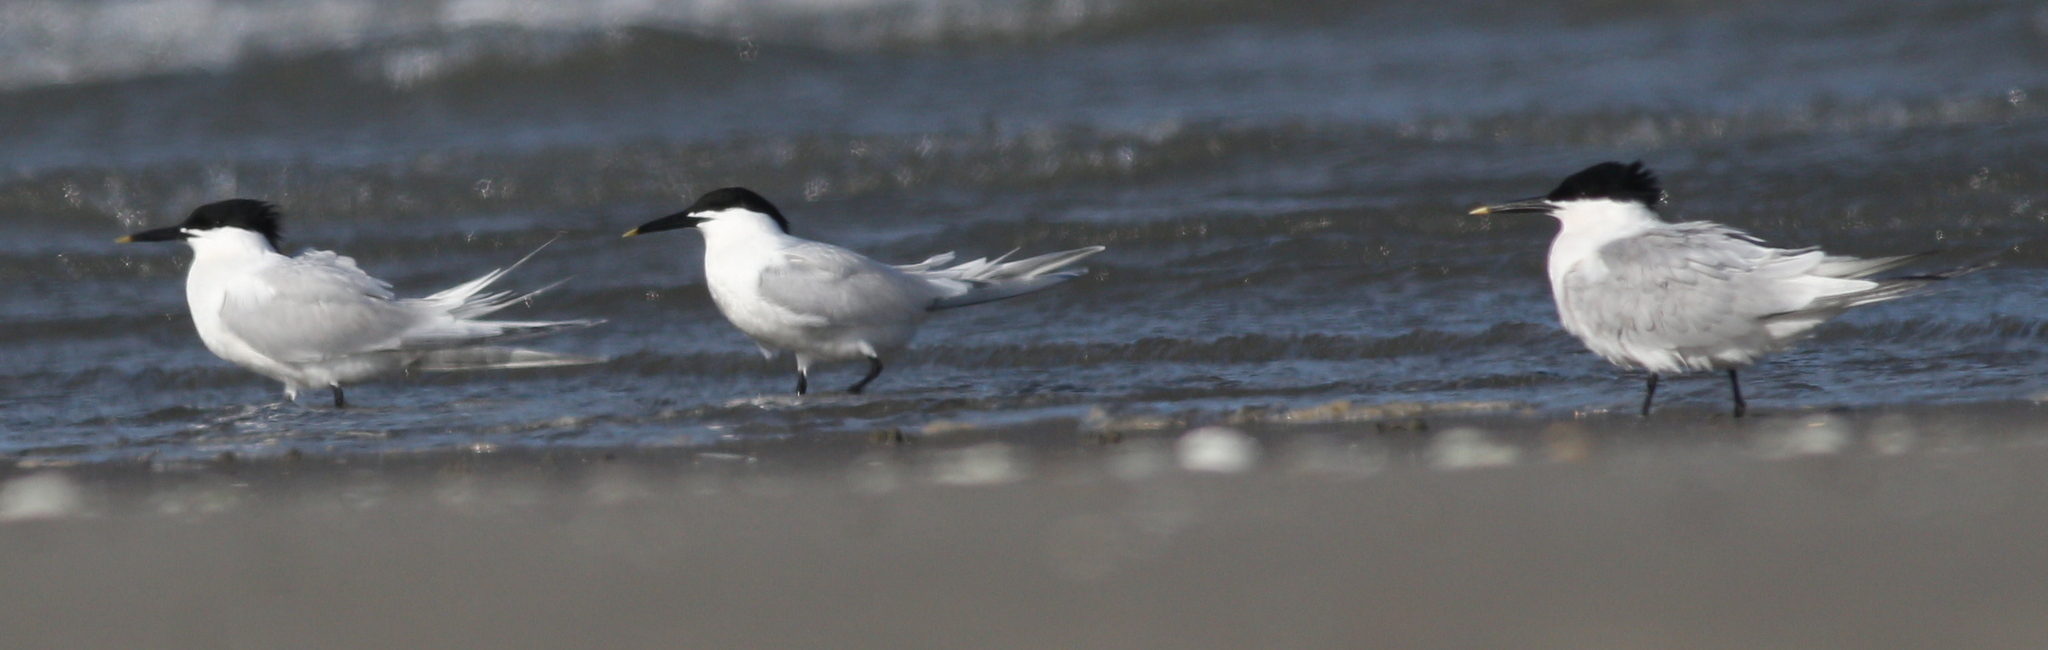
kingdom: Animalia
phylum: Chordata
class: Aves
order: Charadriiformes
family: Laridae
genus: Thalasseus
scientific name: Thalasseus sandvicensis
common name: Sandwich tern
